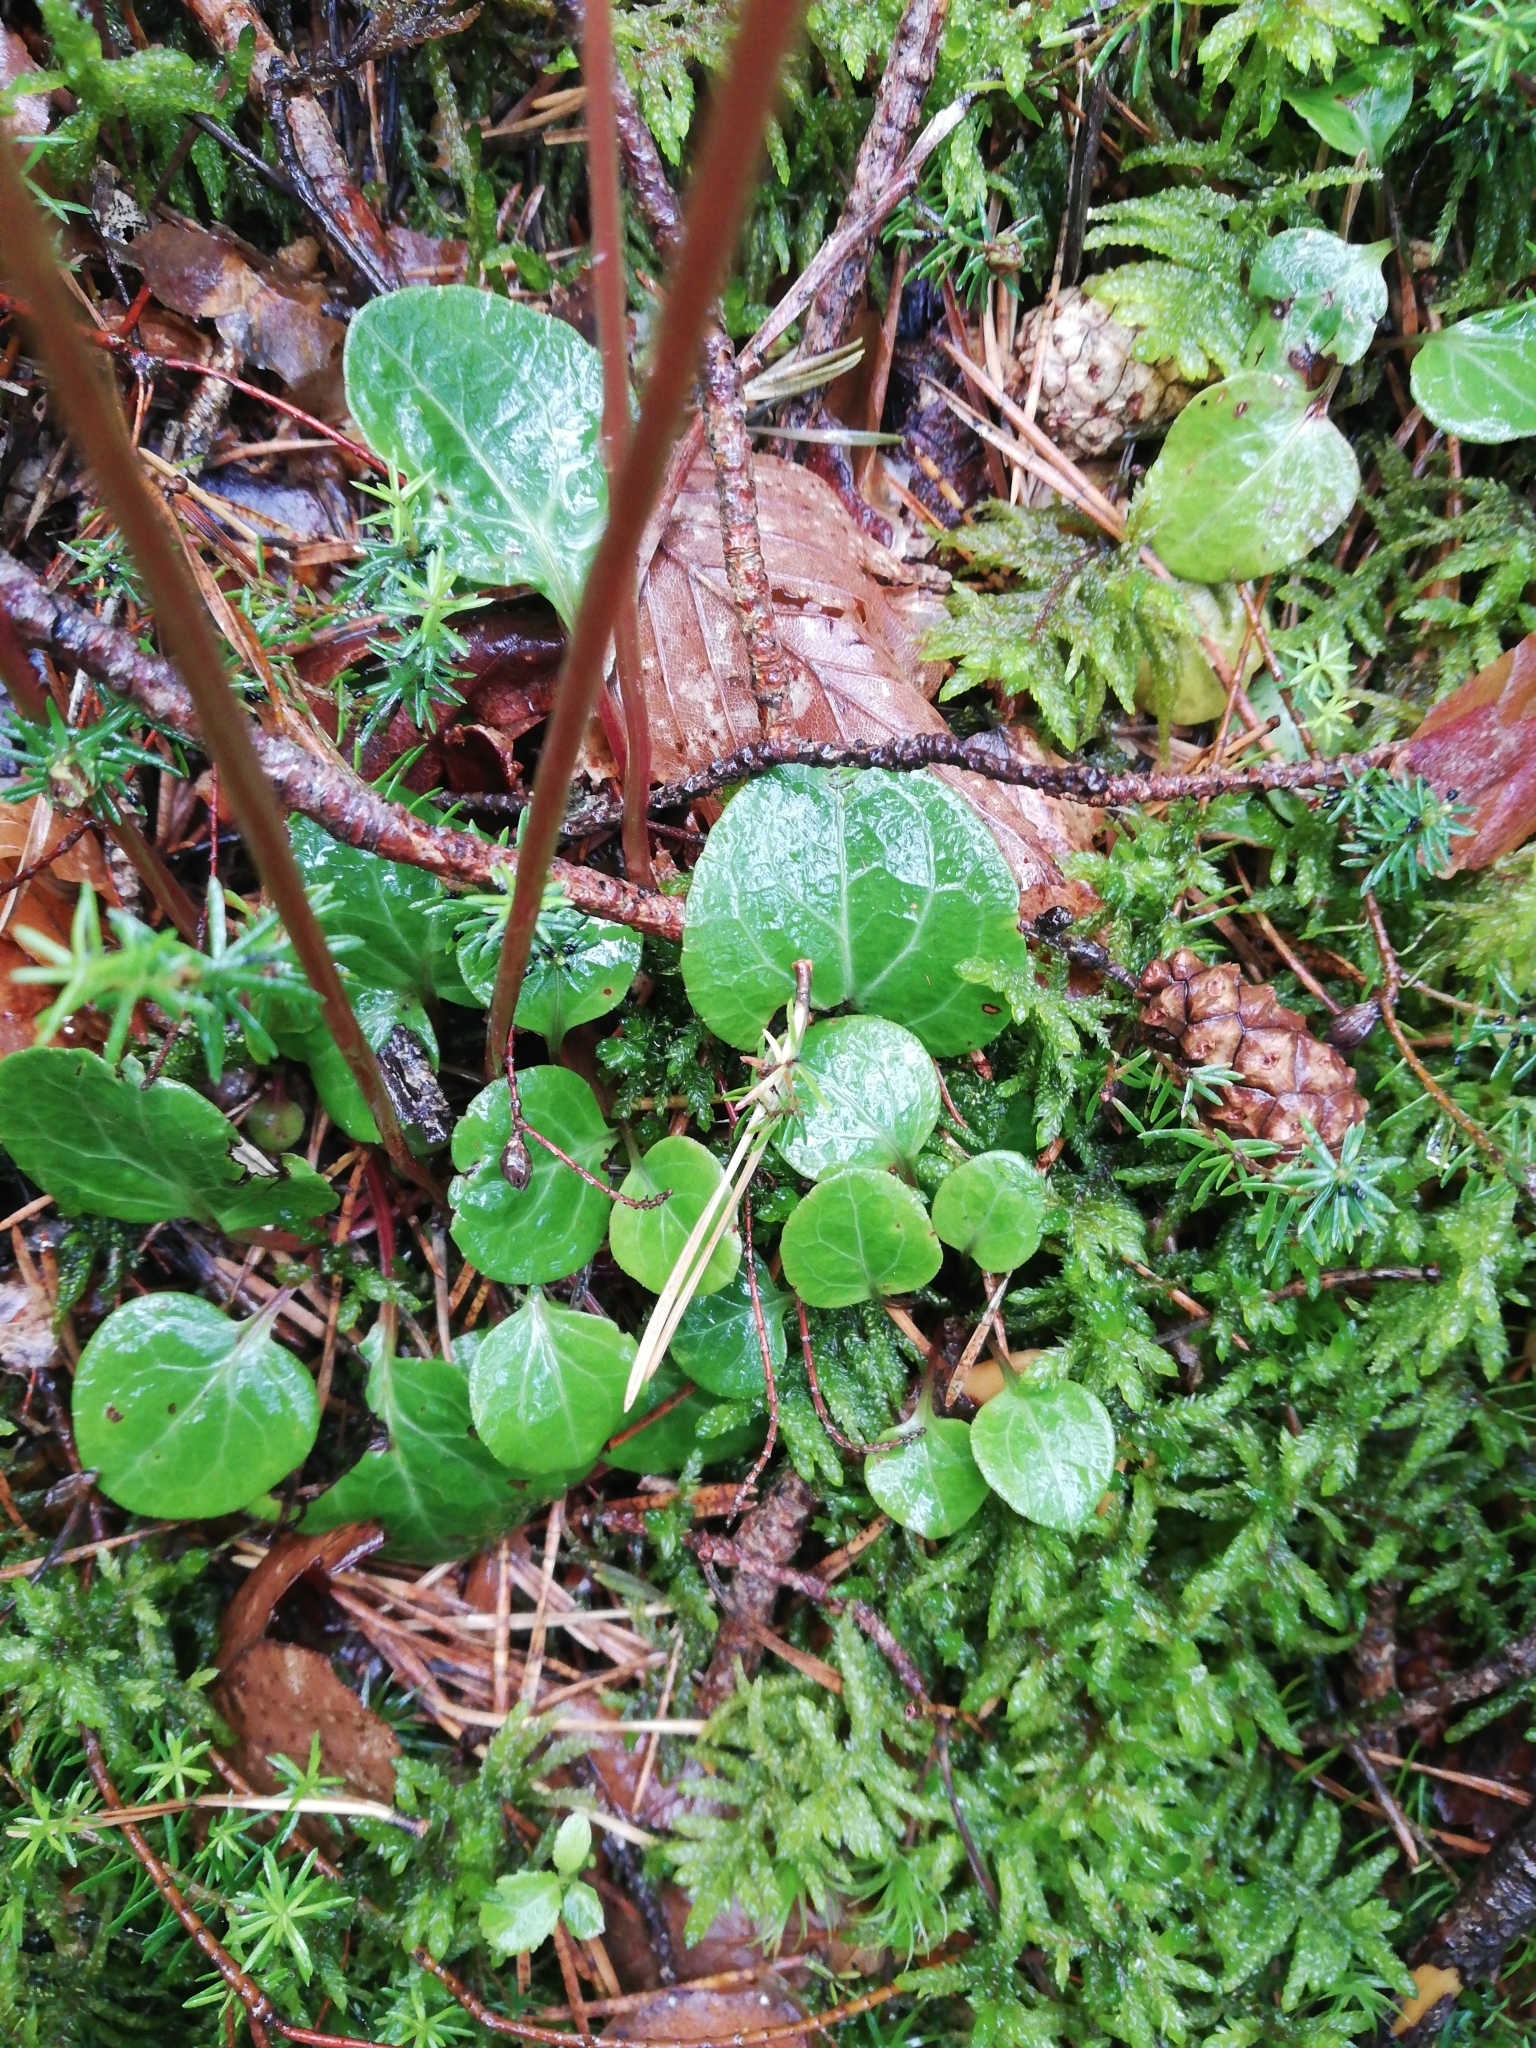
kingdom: Plantae
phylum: Tracheophyta
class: Magnoliopsida
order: Ericales
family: Ericaceae
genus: Pyrola
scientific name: Pyrola chlorantha
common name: Green wintergreen
